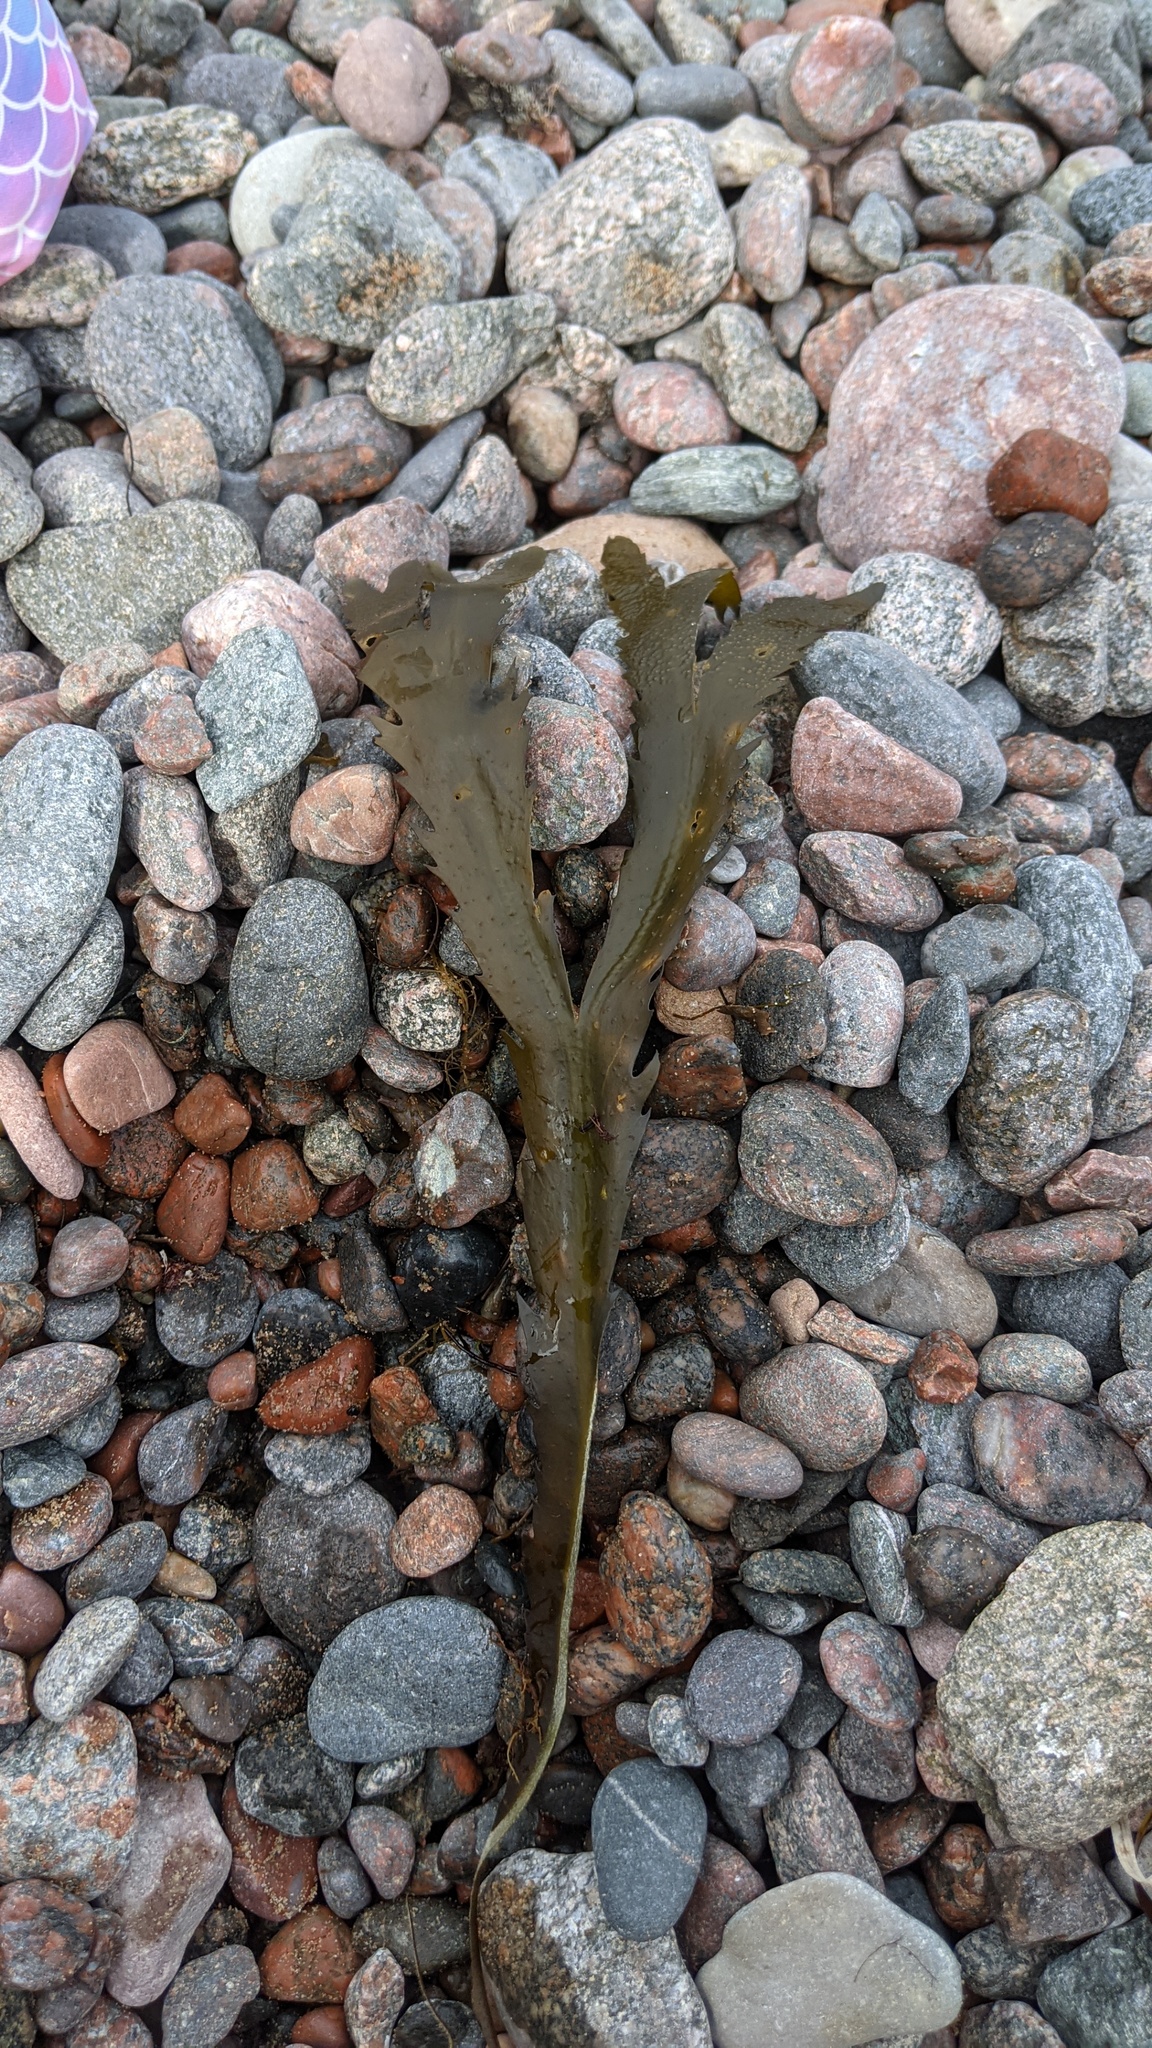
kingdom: Chromista
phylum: Ochrophyta
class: Phaeophyceae
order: Fucales
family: Fucaceae
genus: Fucus
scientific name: Fucus serratus
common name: Toothed wrack
